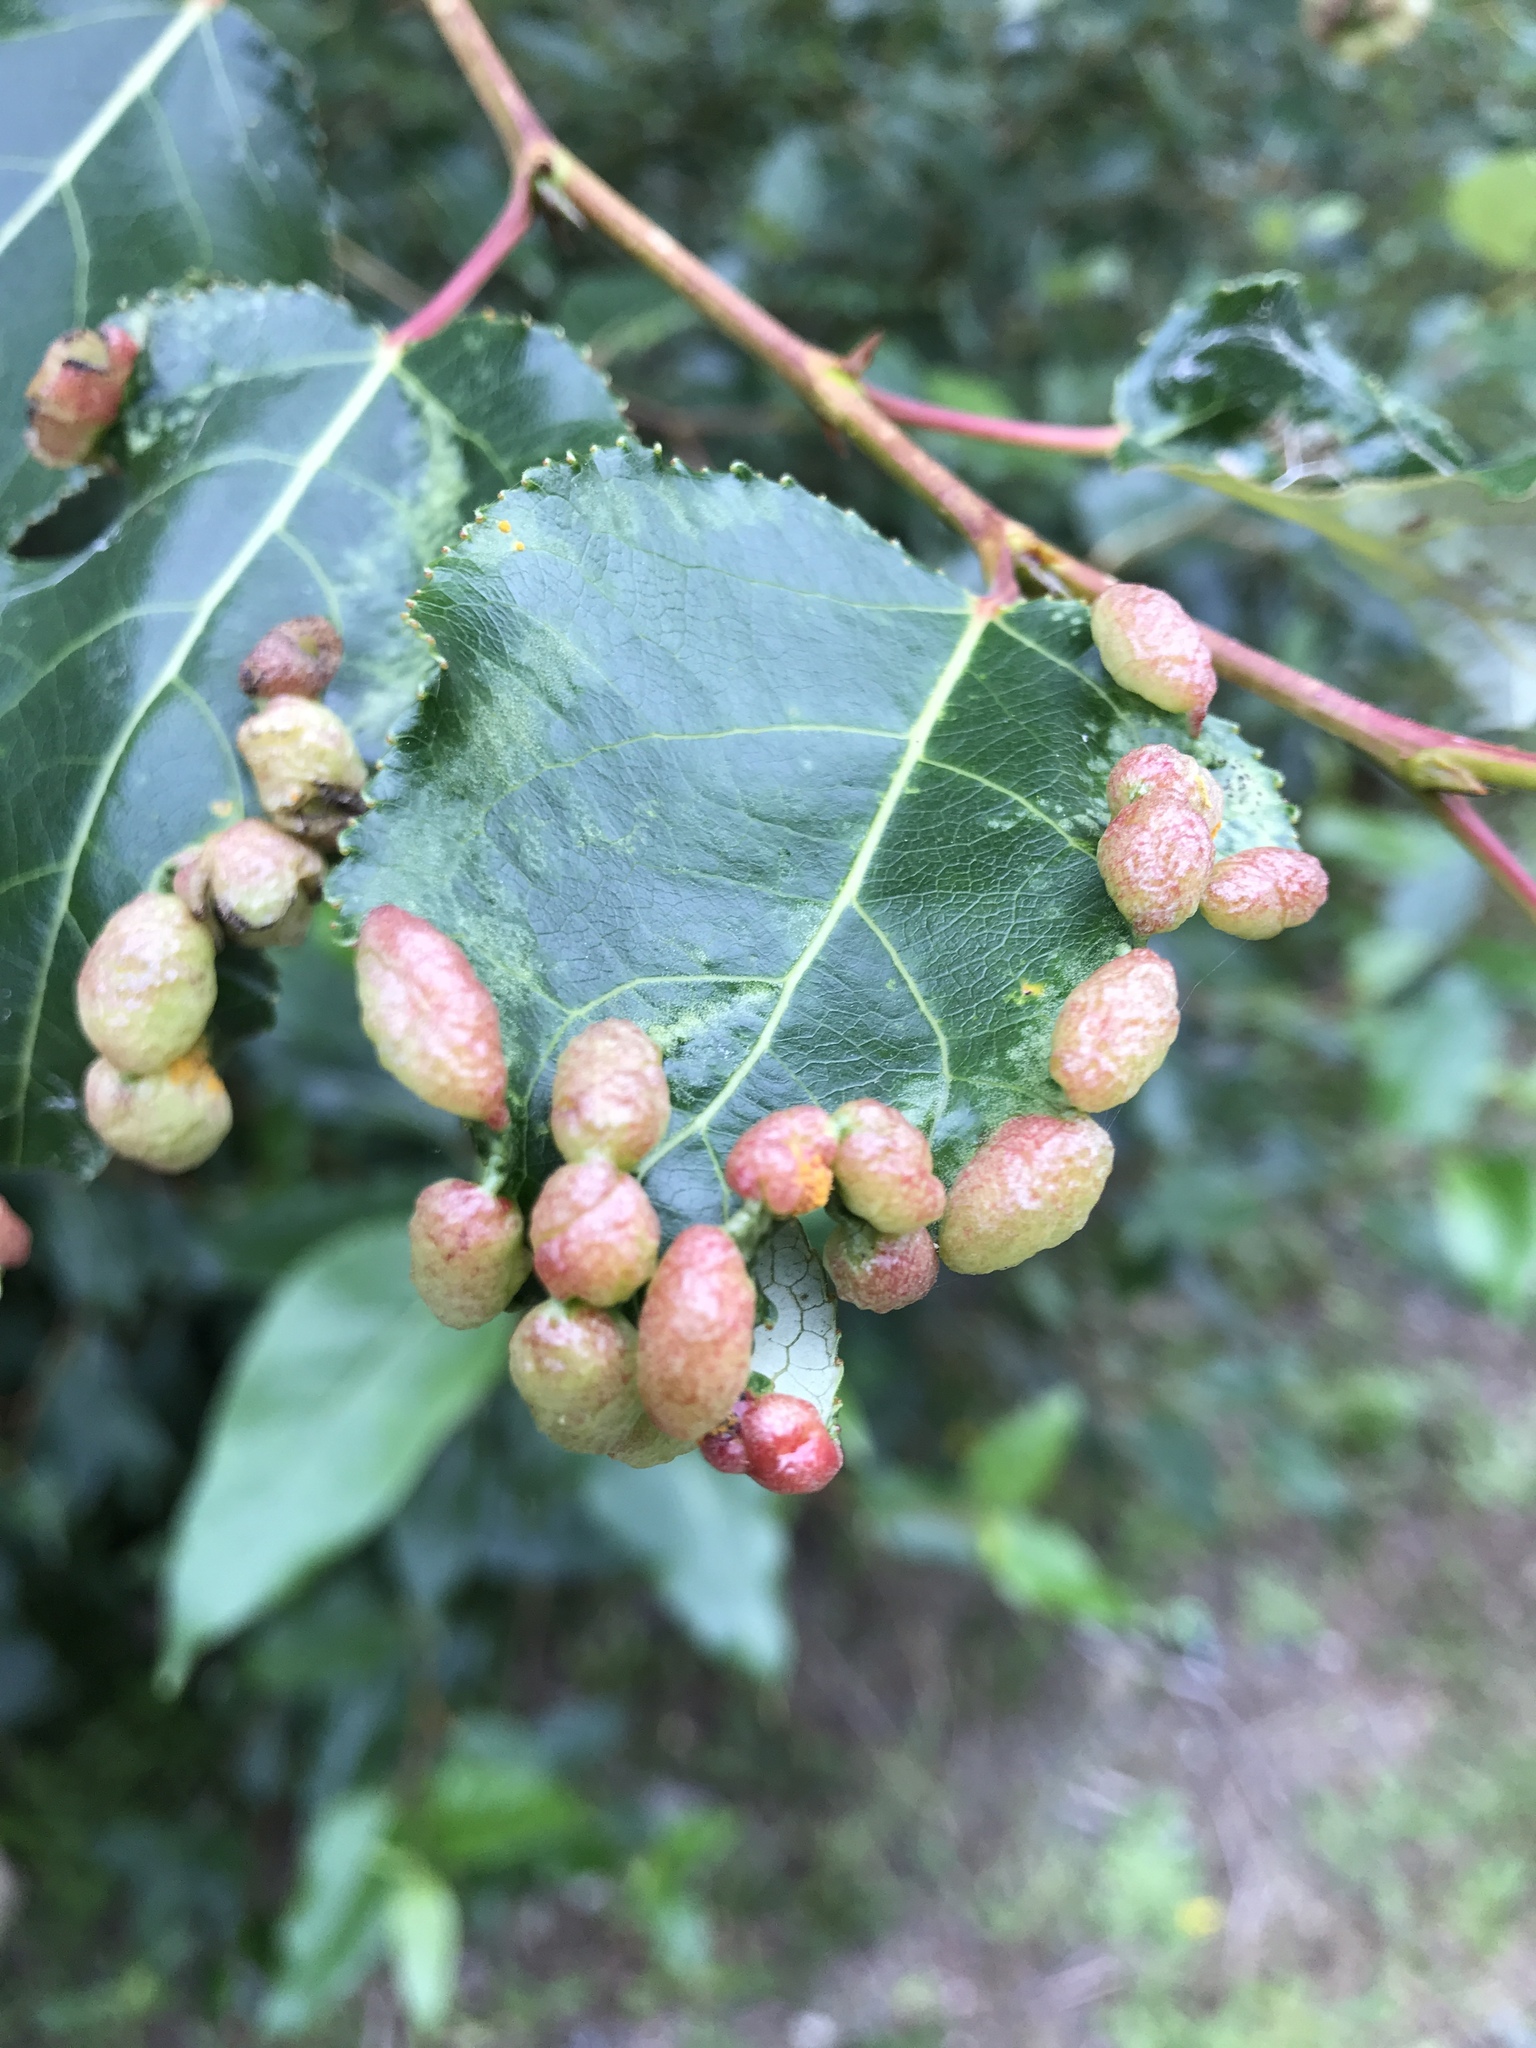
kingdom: Animalia
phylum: Arthropoda
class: Insecta
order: Hemiptera
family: Aphididae
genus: Thecabius
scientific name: Thecabius populimonilis
